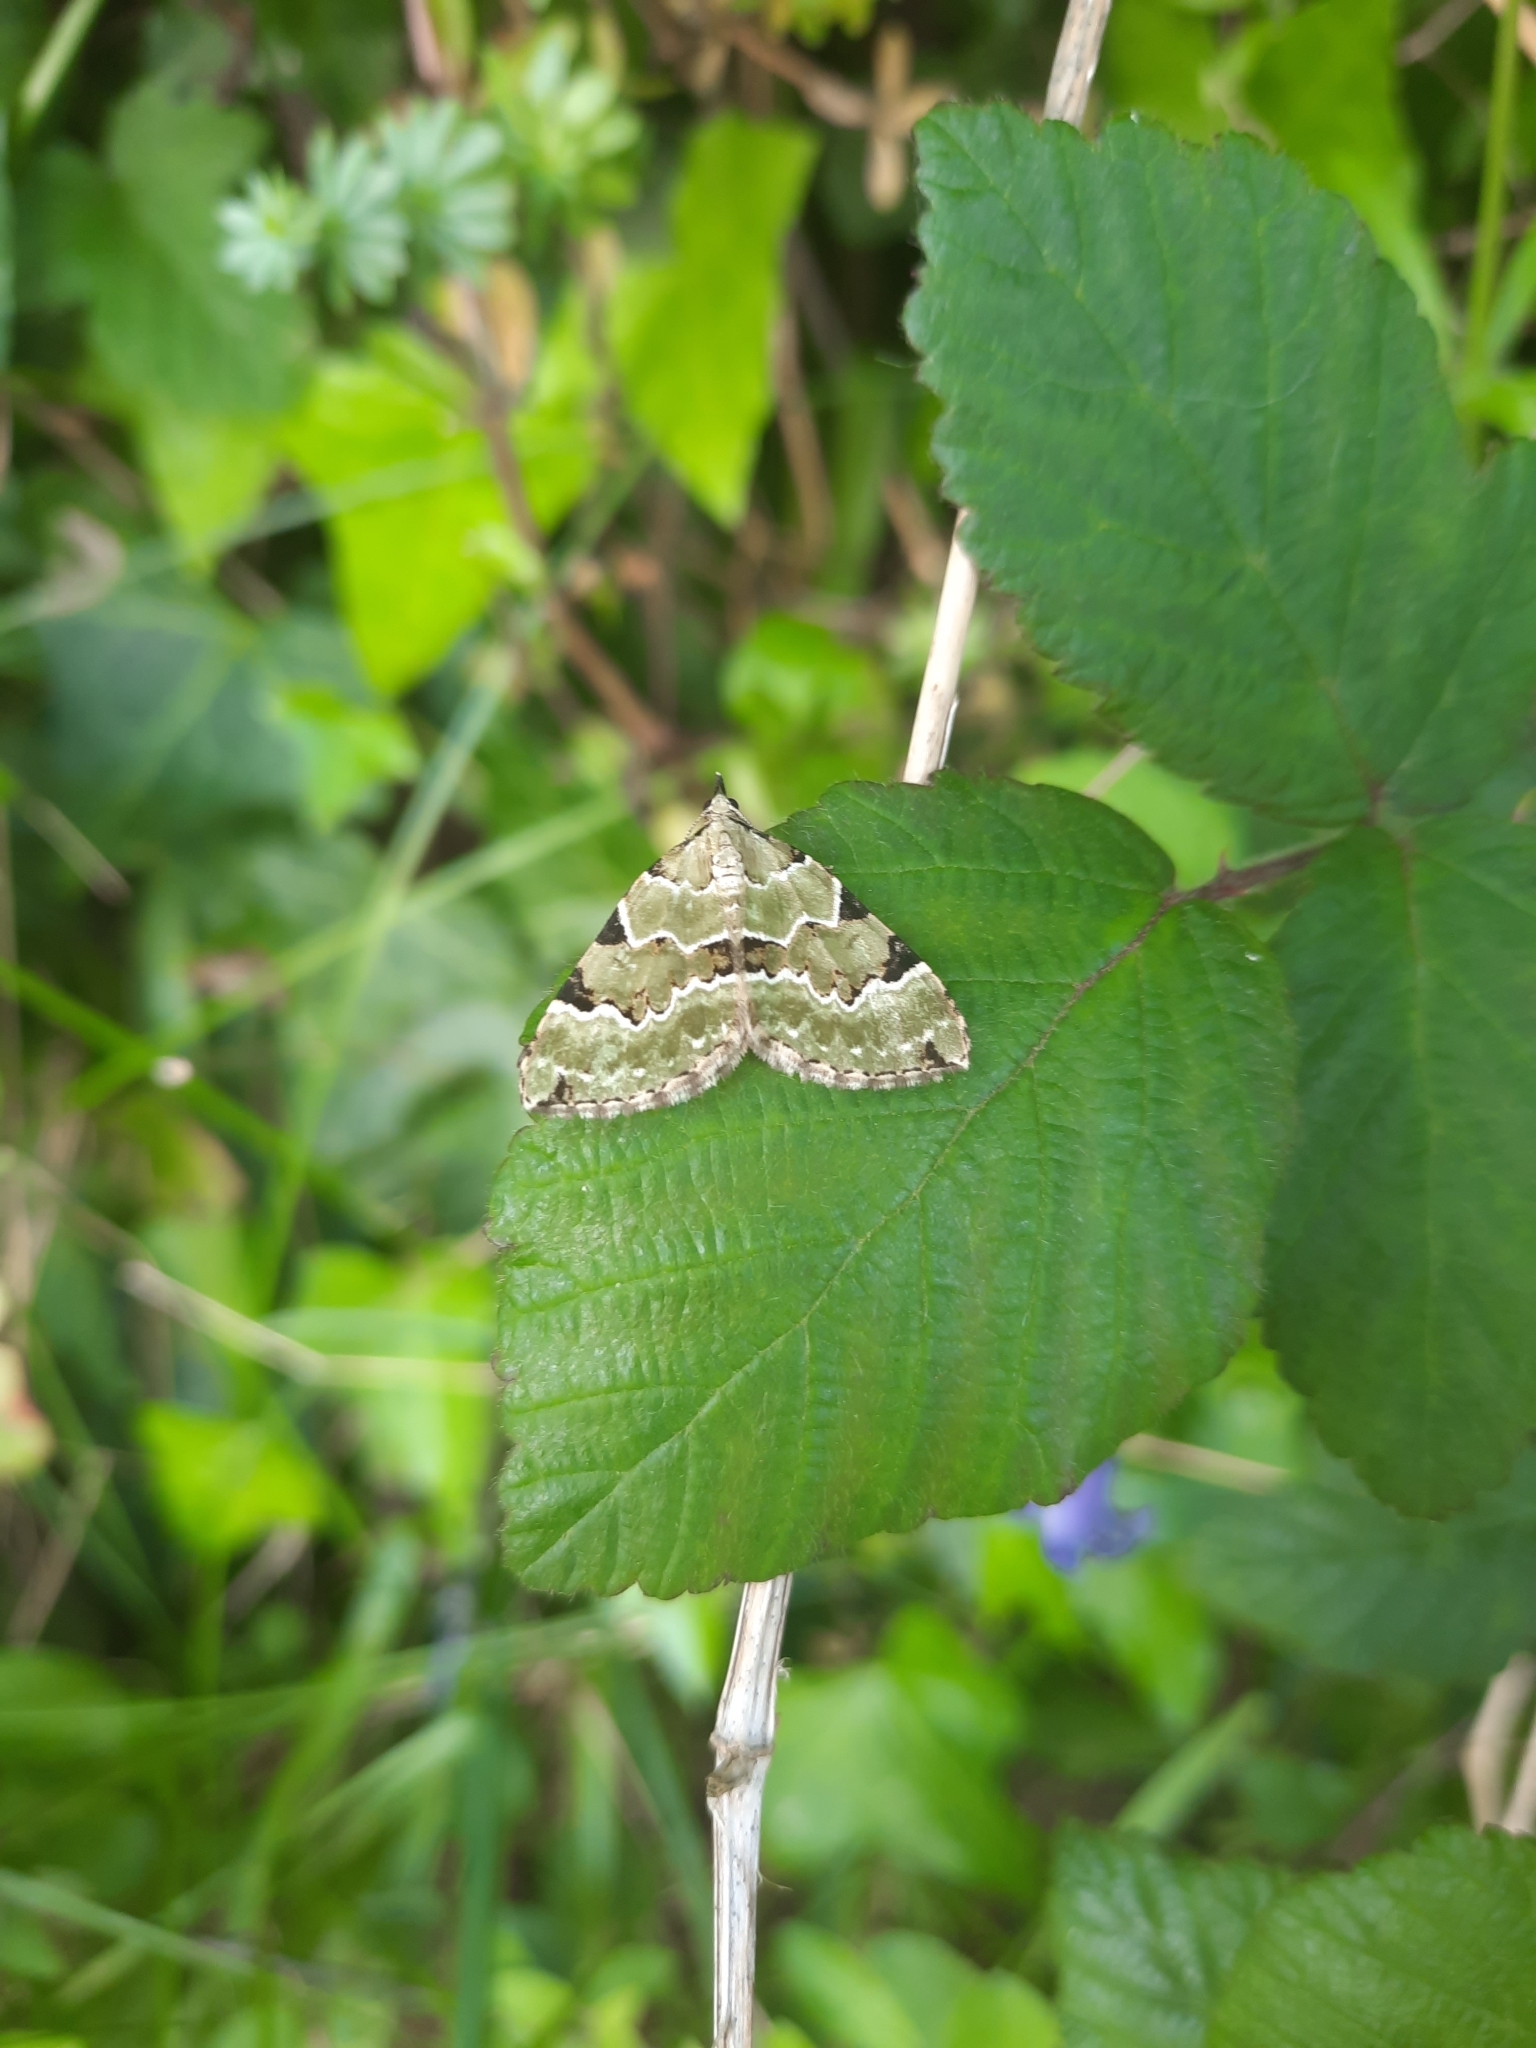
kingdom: Animalia
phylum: Arthropoda
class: Insecta
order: Lepidoptera
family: Geometridae
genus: Colostygia
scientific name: Colostygia pectinataria
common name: Green carpet
